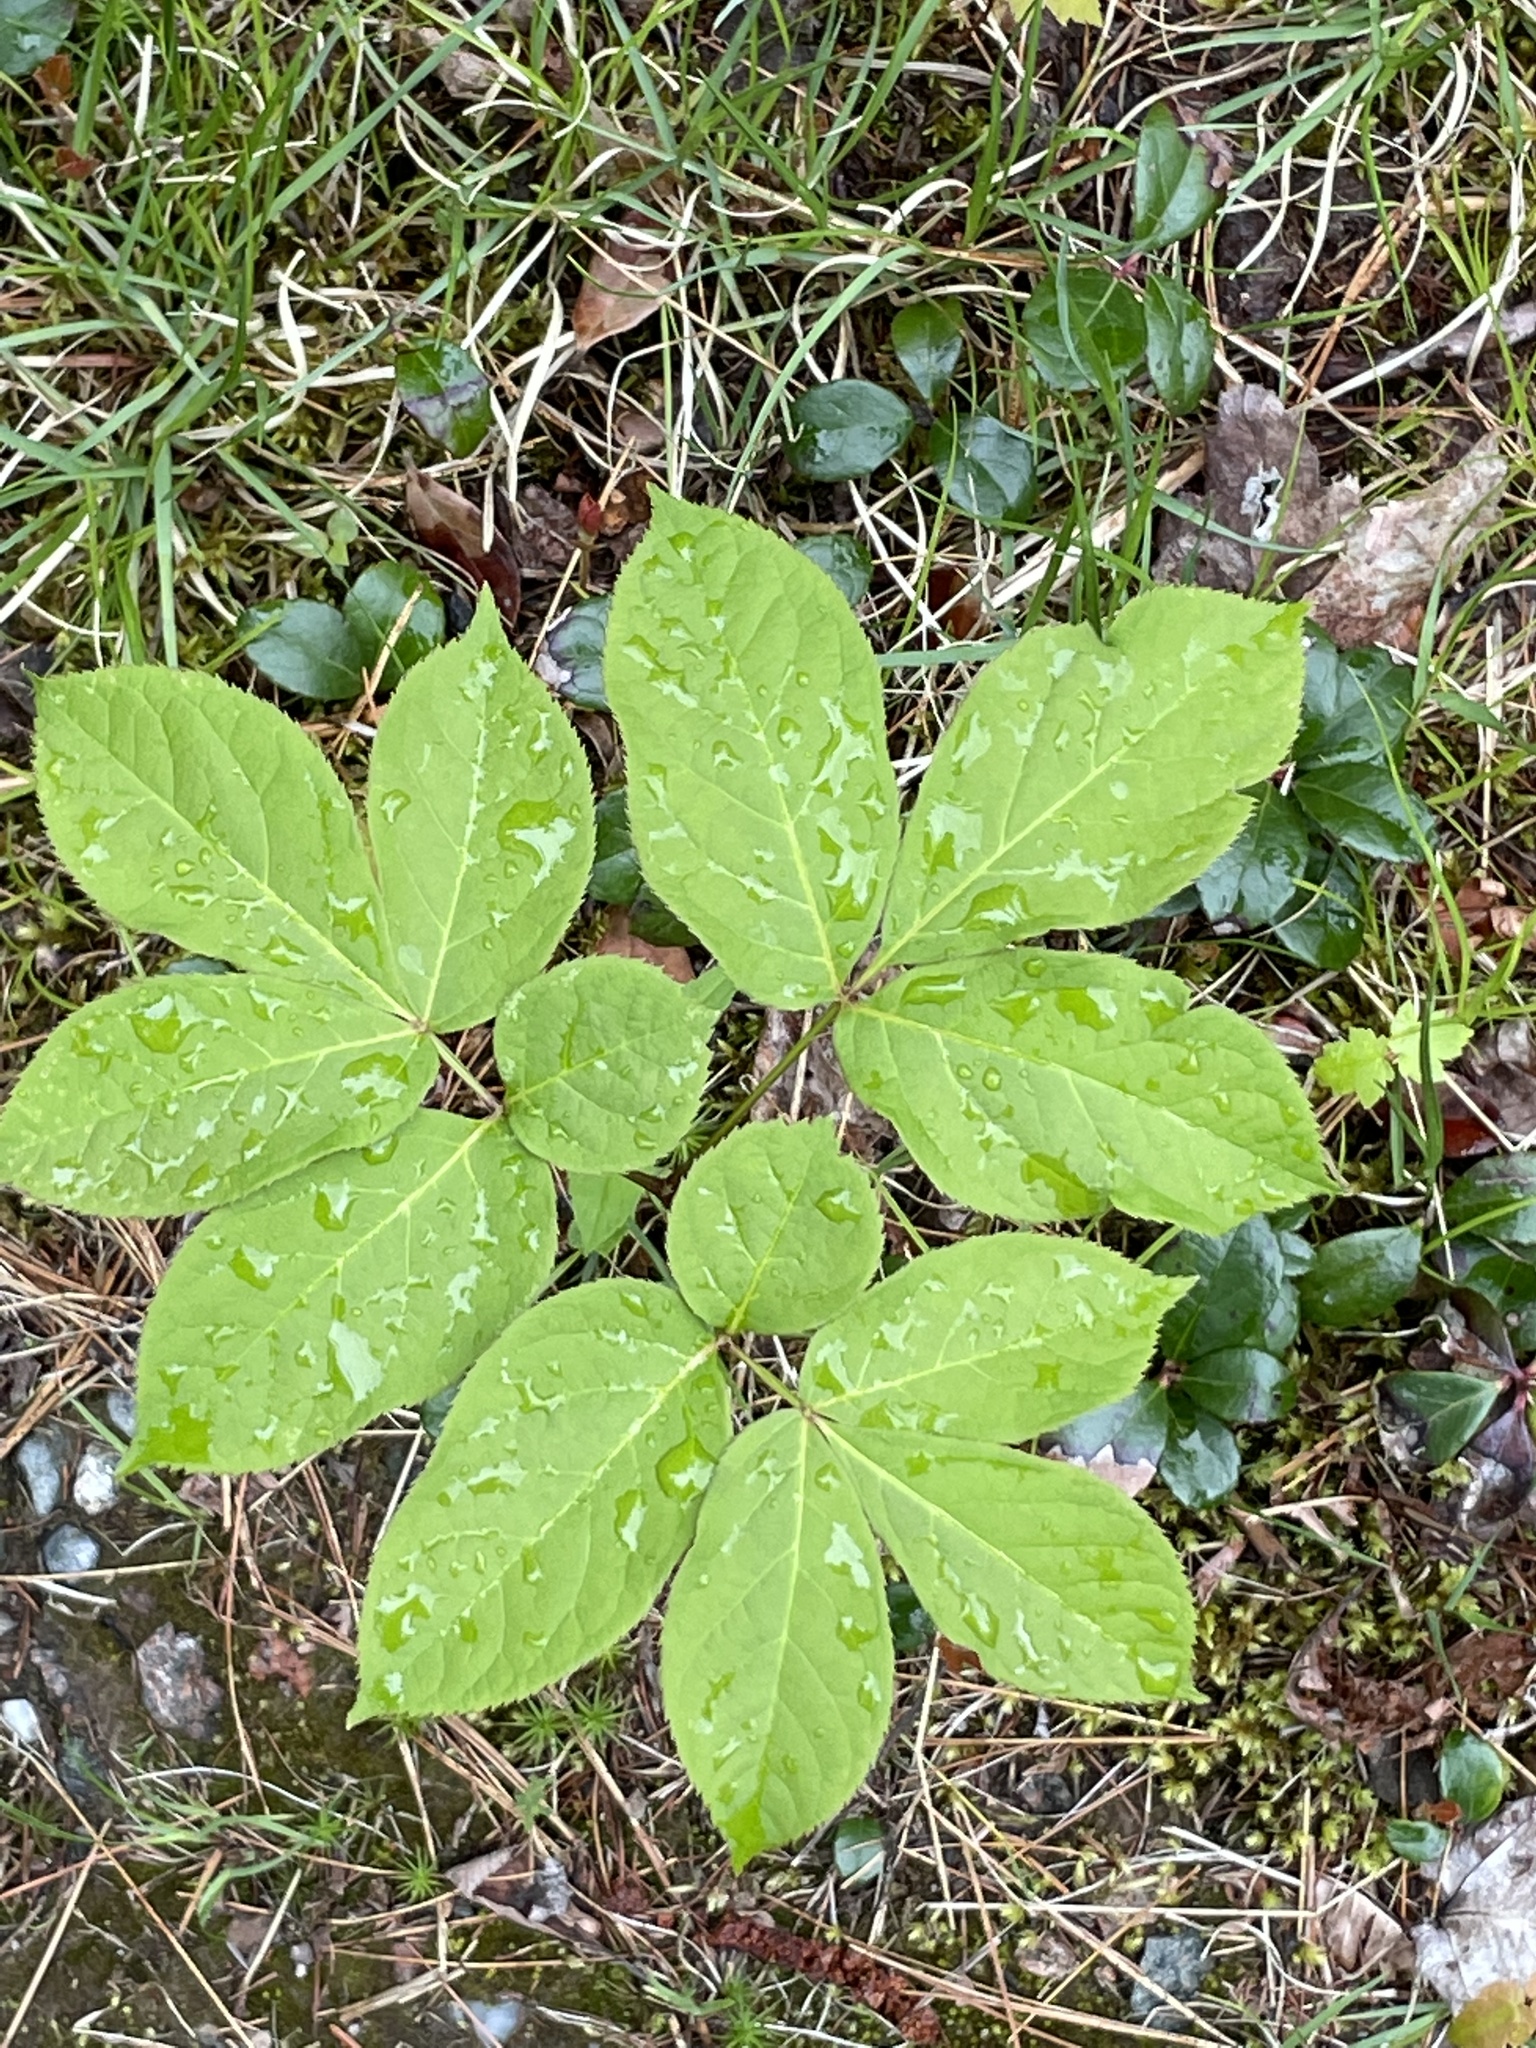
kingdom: Plantae
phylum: Tracheophyta
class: Magnoliopsida
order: Apiales
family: Araliaceae
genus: Aralia
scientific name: Aralia nudicaulis
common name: Wild sarsaparilla
